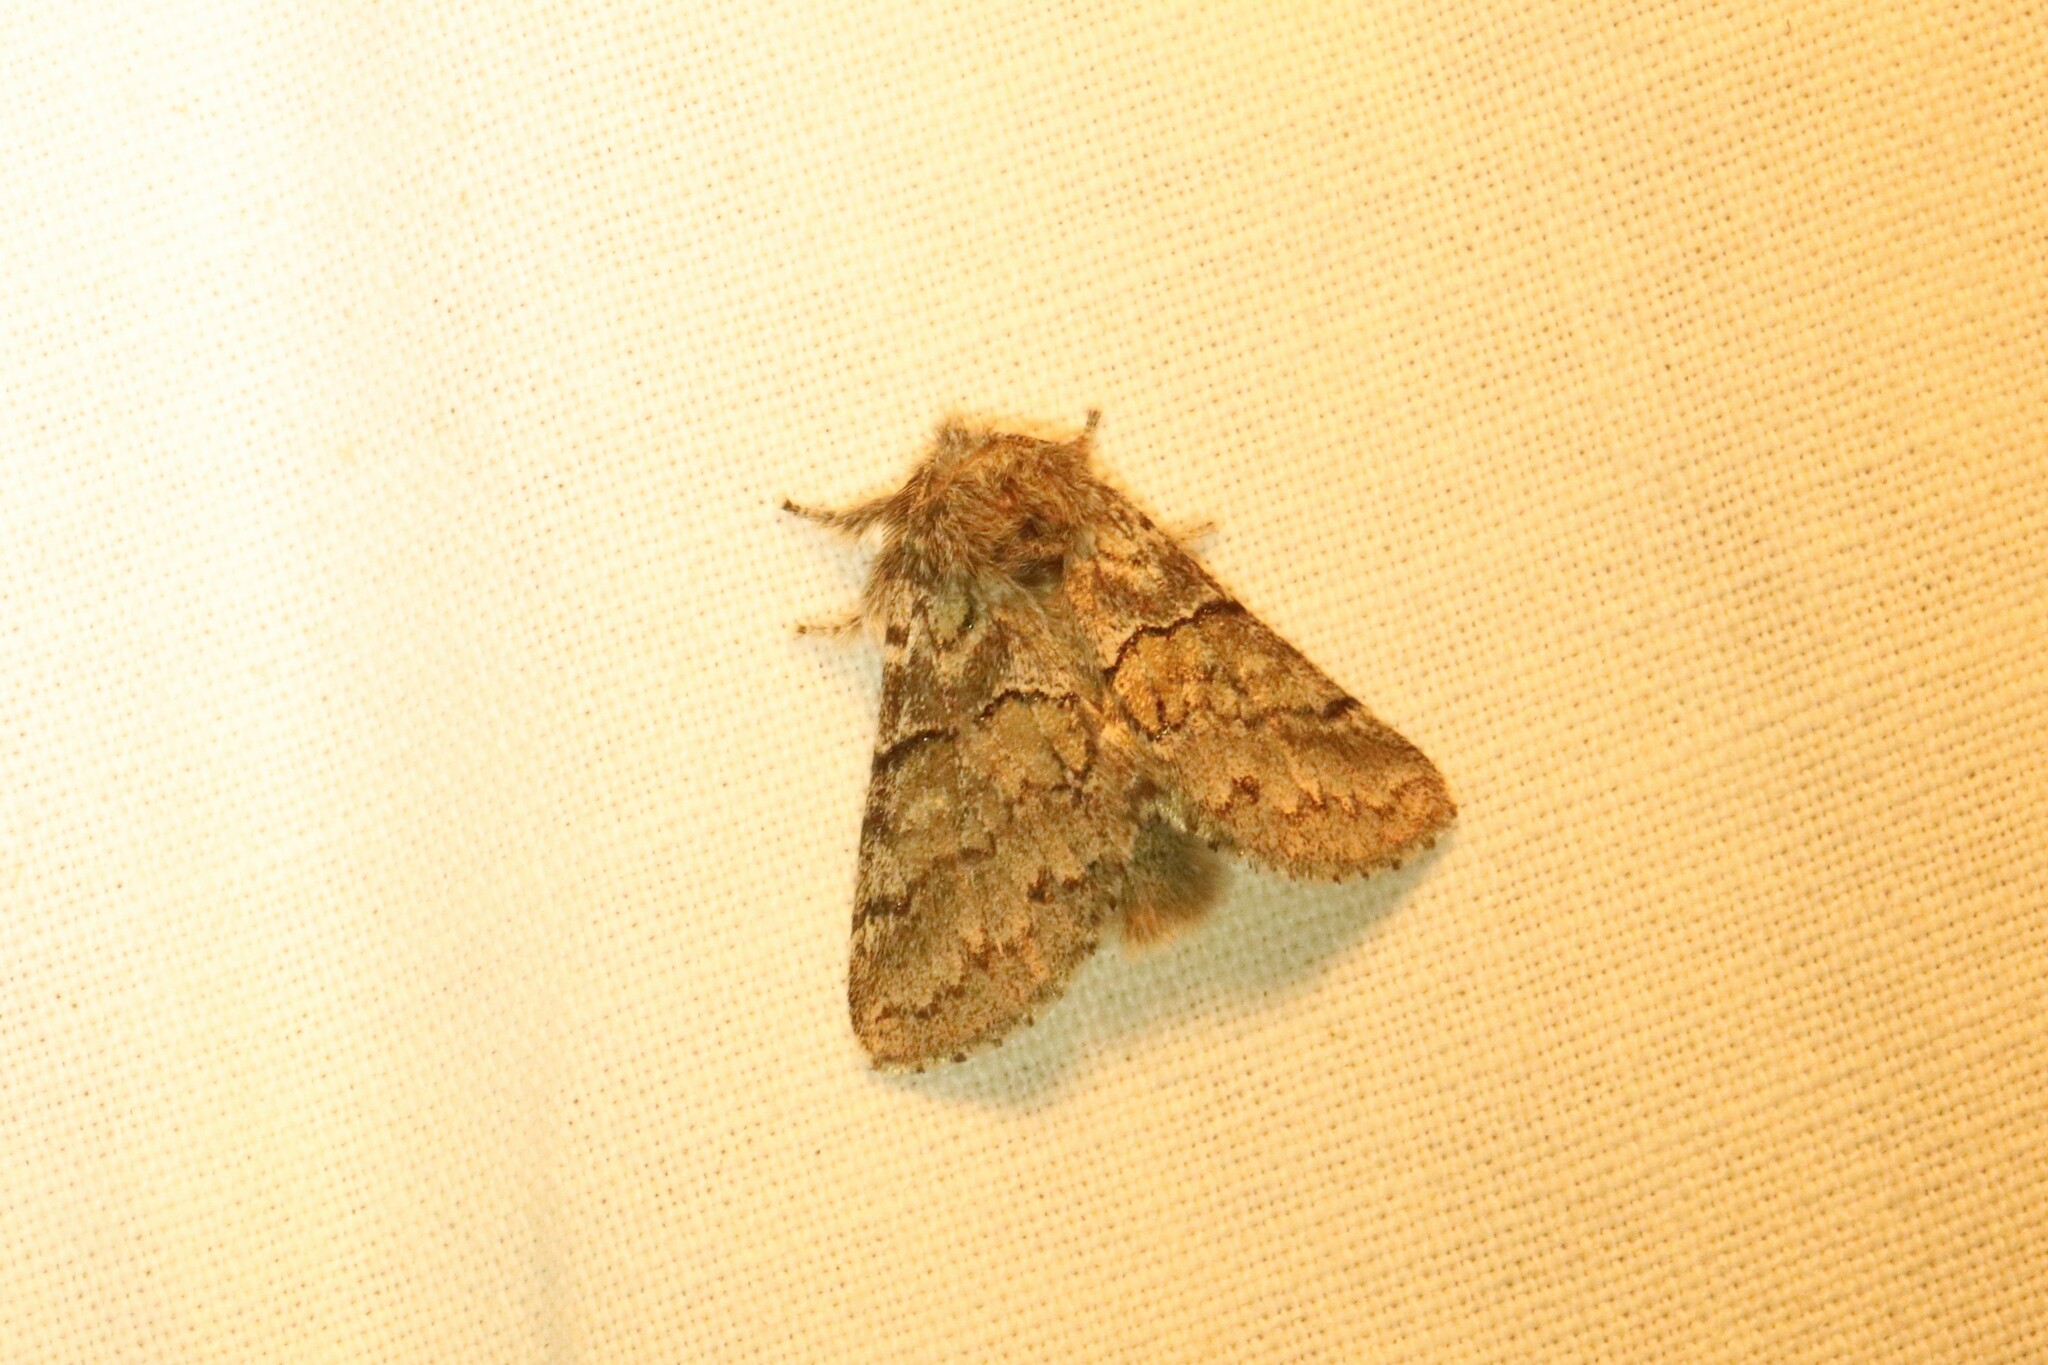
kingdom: Animalia
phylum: Arthropoda
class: Insecta
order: Lepidoptera
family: Notodontidae
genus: Gluphisia
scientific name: Gluphisia septentrionis
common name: Common gluphisia
